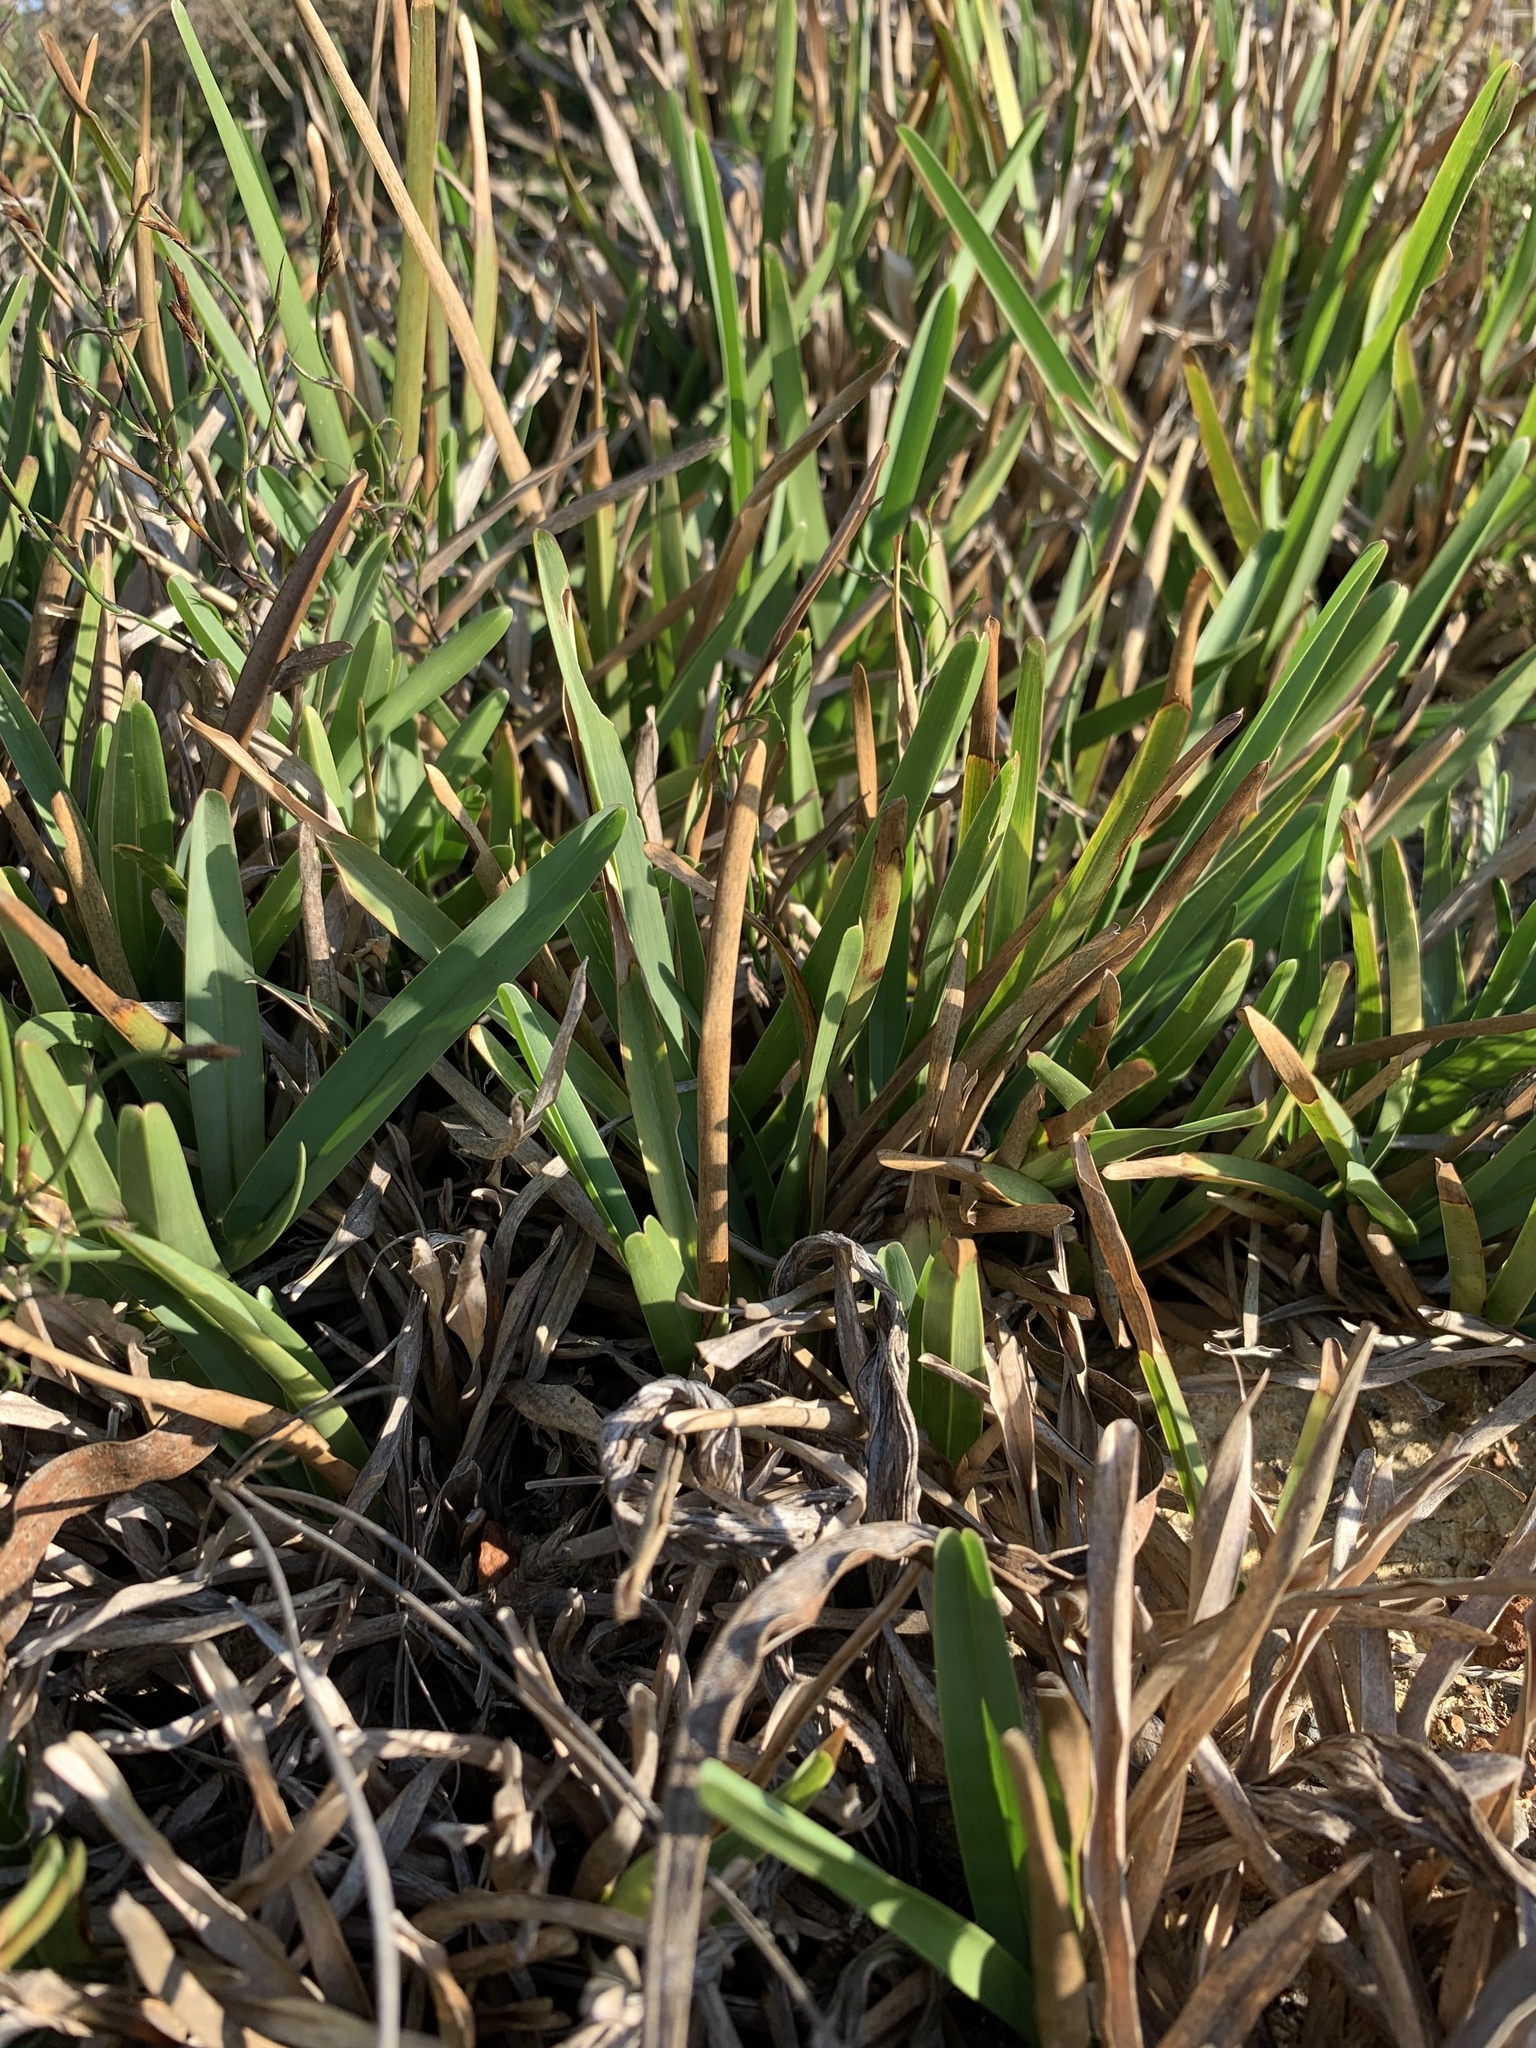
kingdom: Plantae
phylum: Tracheophyta
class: Liliopsida
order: Poales
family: Poaceae
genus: Stenotaphrum
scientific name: Stenotaphrum secundatum
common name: St. augustine grass
